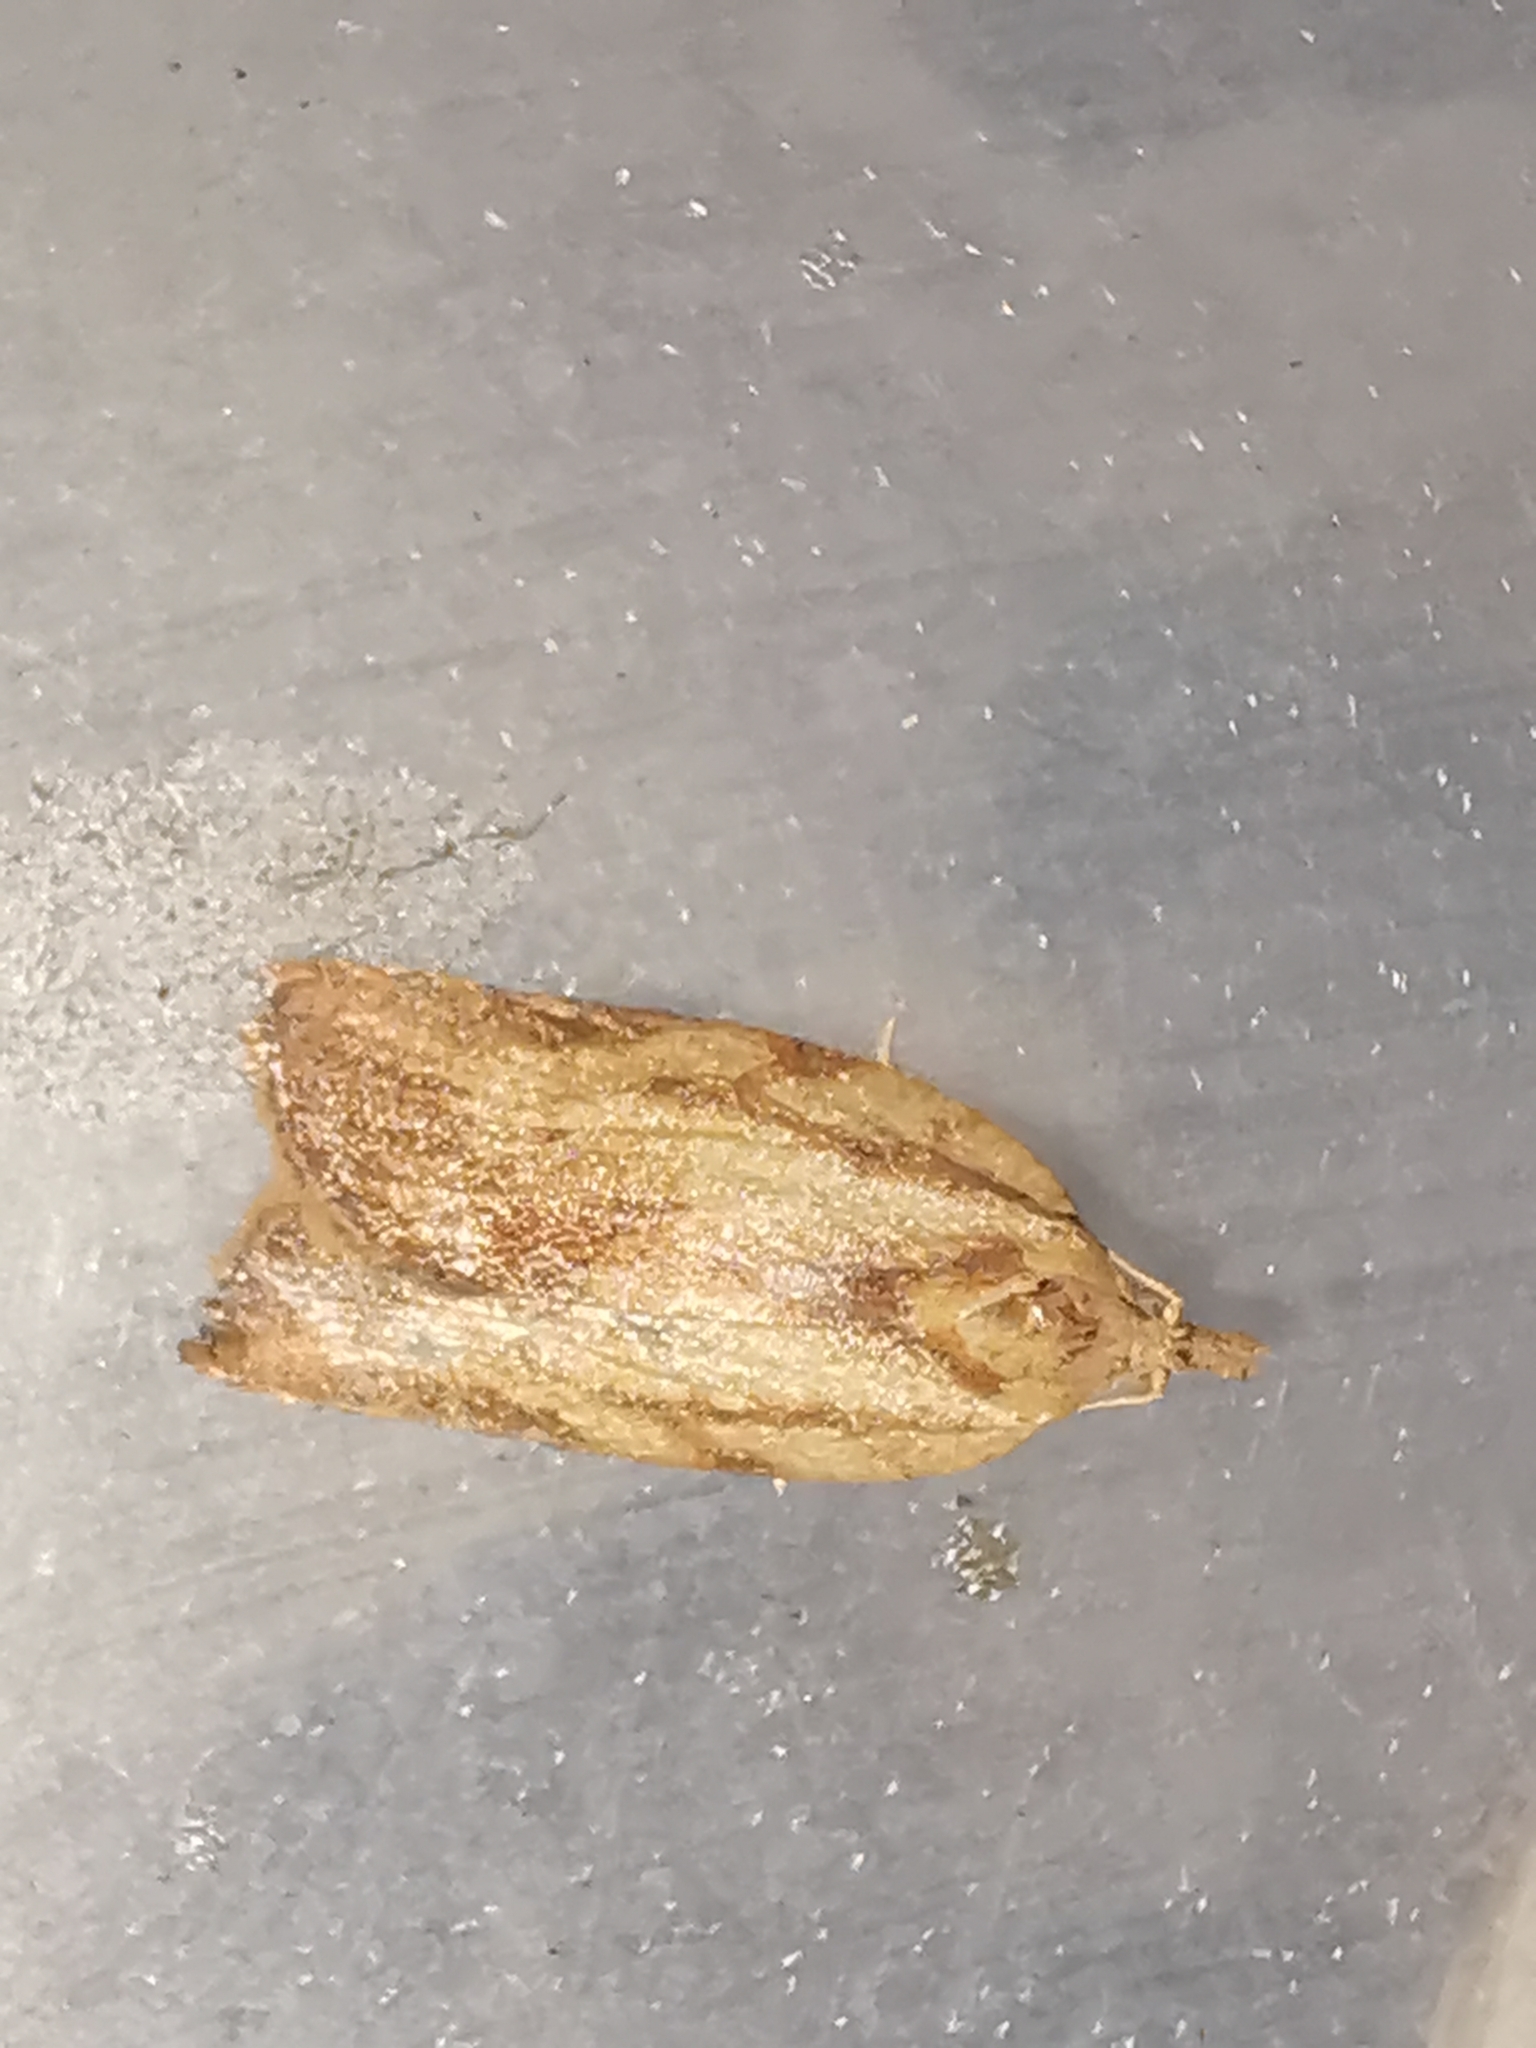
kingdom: Animalia
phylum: Arthropoda
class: Insecta
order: Lepidoptera
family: Tortricidae
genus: Epiphyas
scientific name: Epiphyas postvittana
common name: Light brown apple moth
